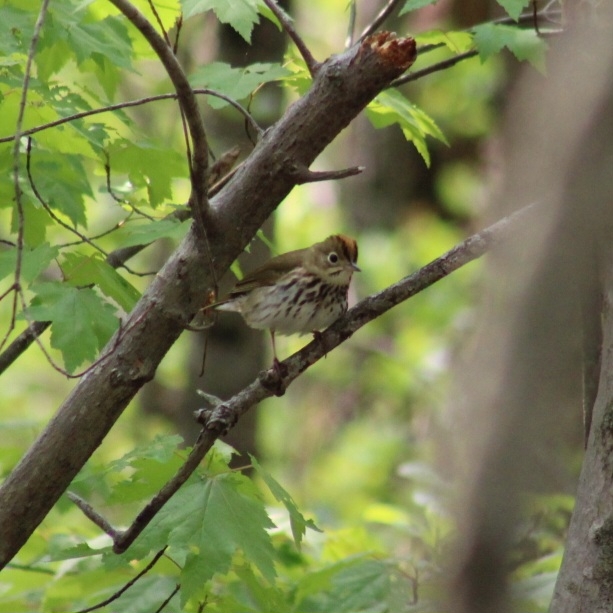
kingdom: Animalia
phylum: Chordata
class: Aves
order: Passeriformes
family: Parulidae
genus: Seiurus
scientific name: Seiurus aurocapilla
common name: Ovenbird
